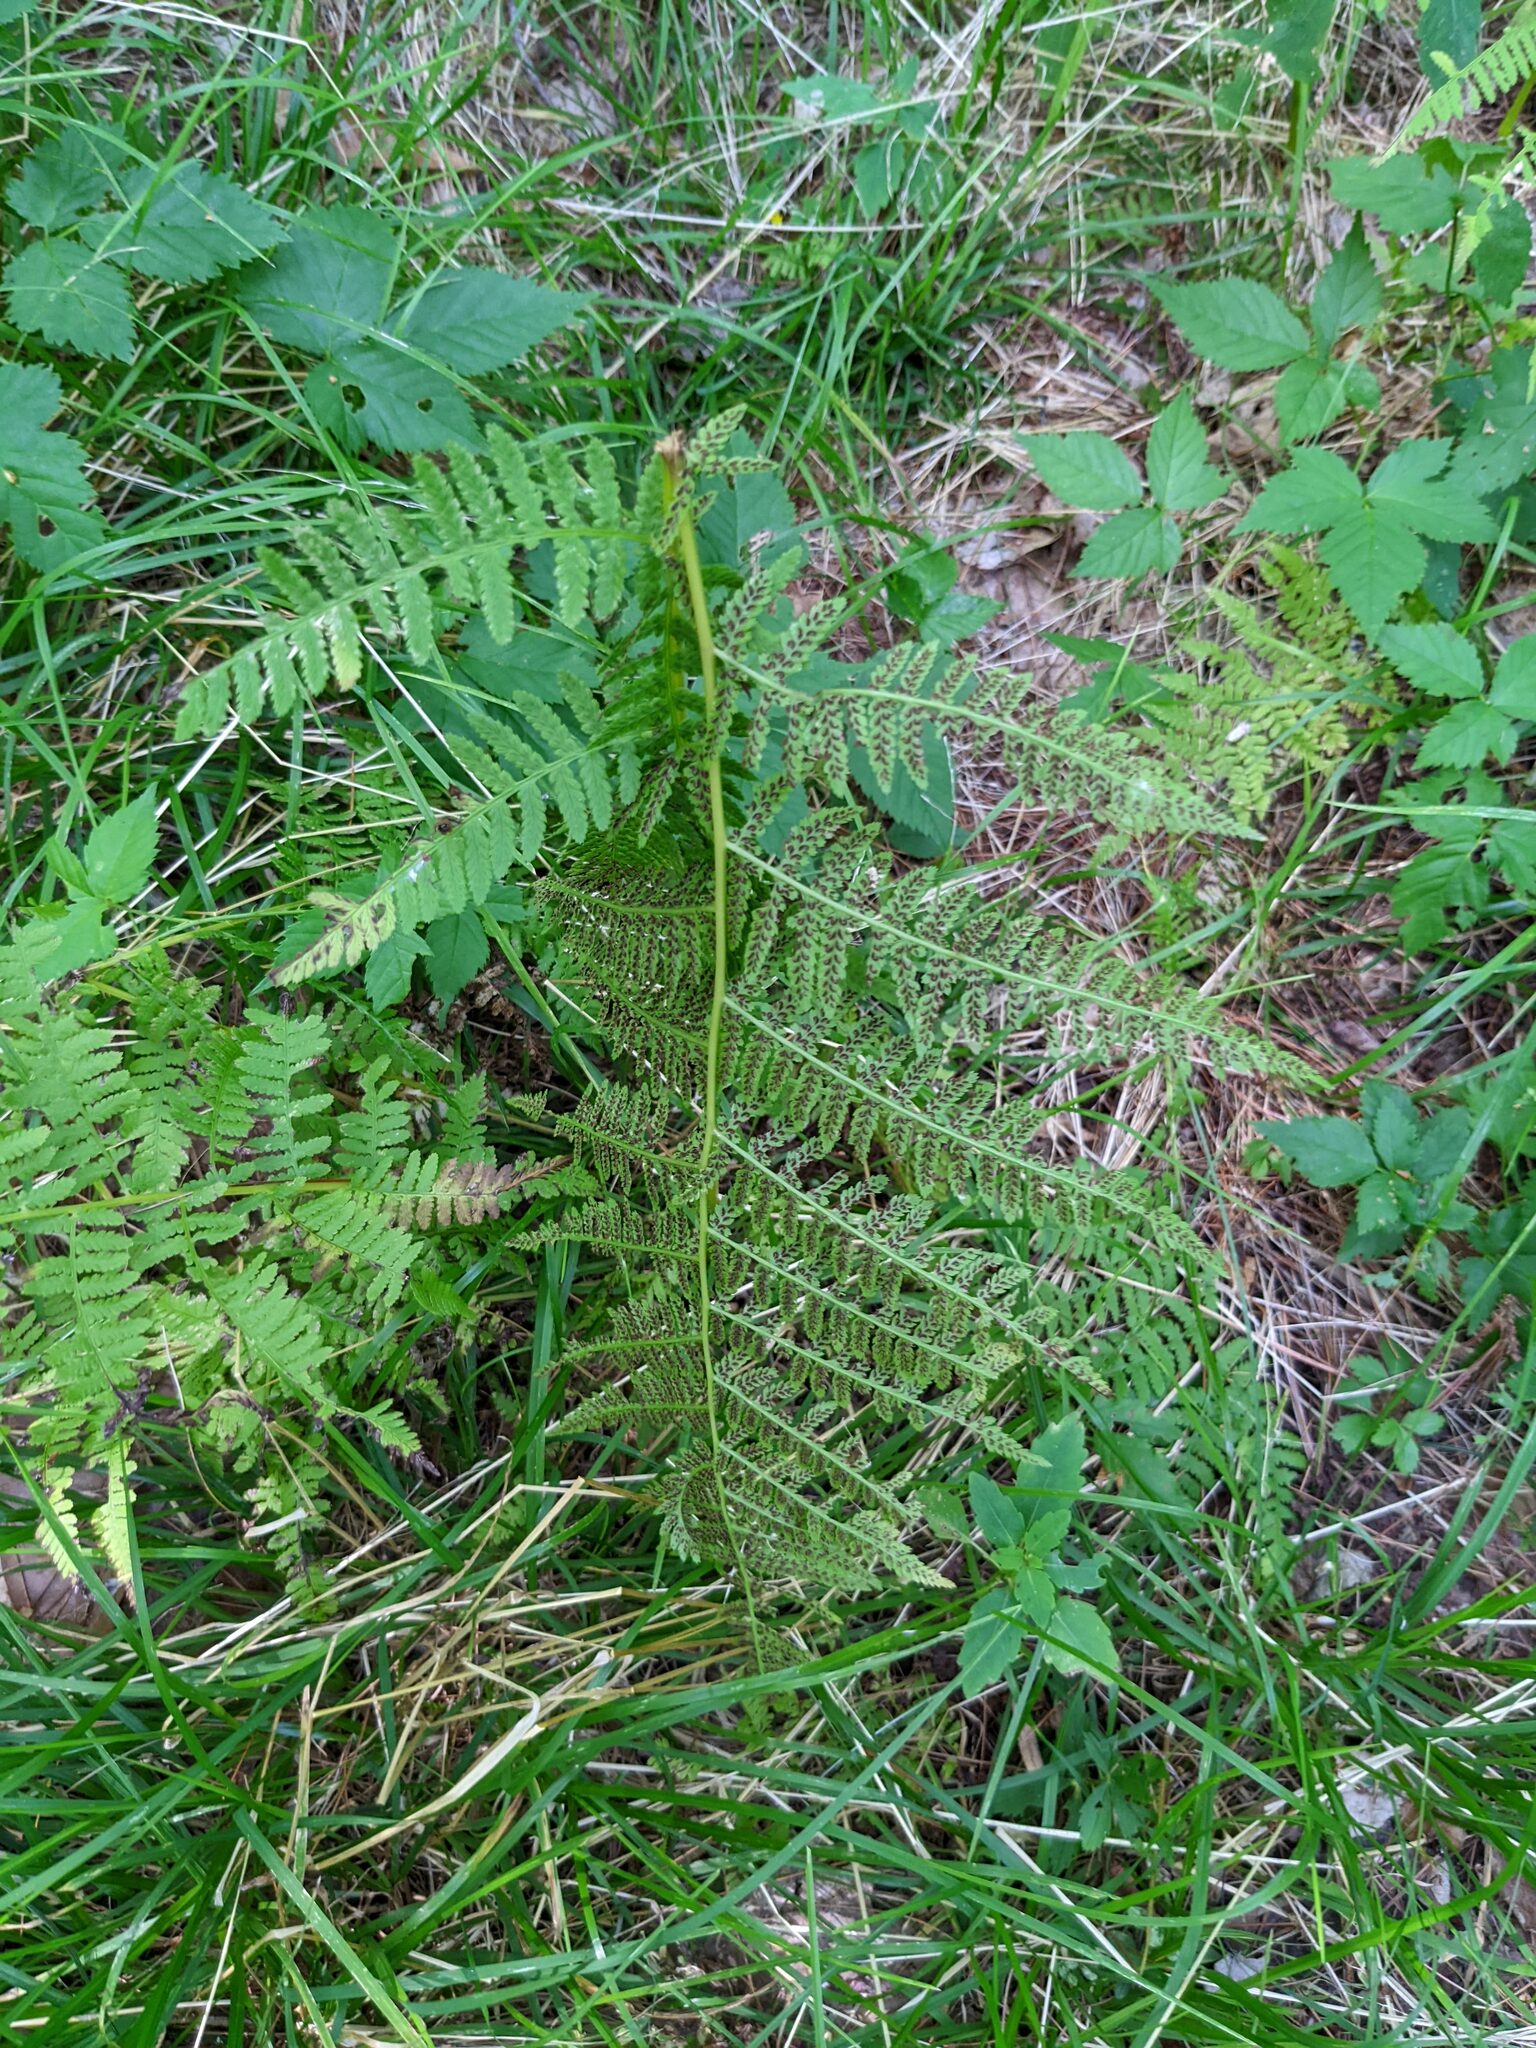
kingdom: Plantae
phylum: Tracheophyta
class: Polypodiopsida
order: Polypodiales
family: Athyriaceae
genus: Athyrium
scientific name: Athyrium angustum
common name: Northern lady fern
